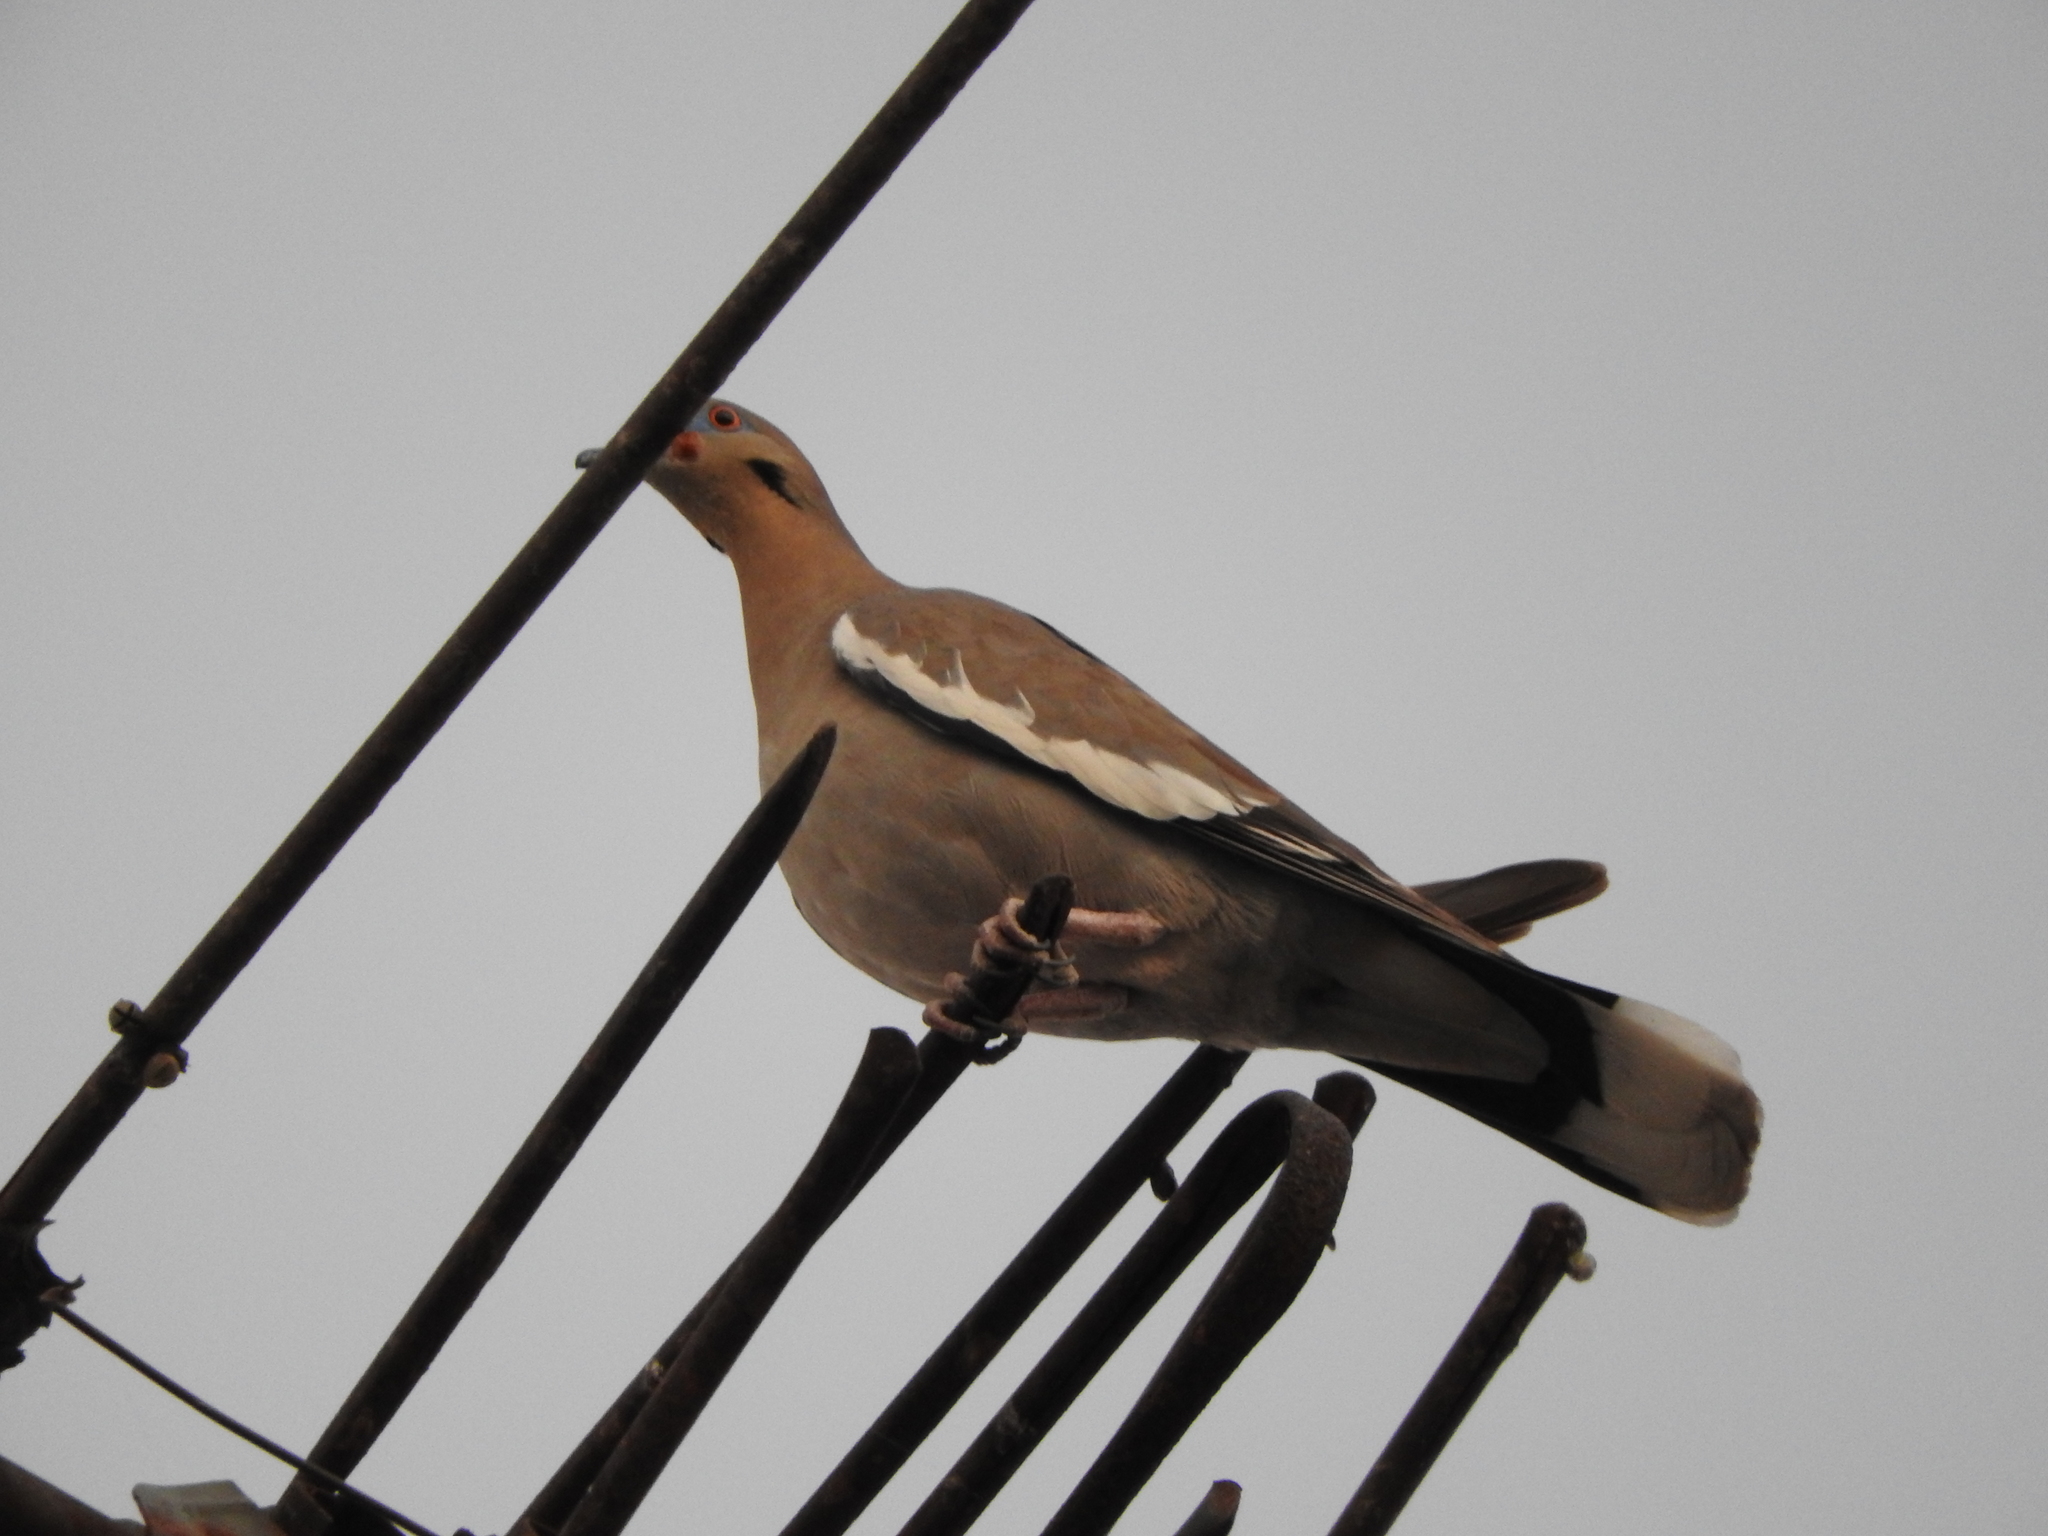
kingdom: Animalia
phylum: Chordata
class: Aves
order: Columbiformes
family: Columbidae
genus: Zenaida
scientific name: Zenaida asiatica
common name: White-winged dove
